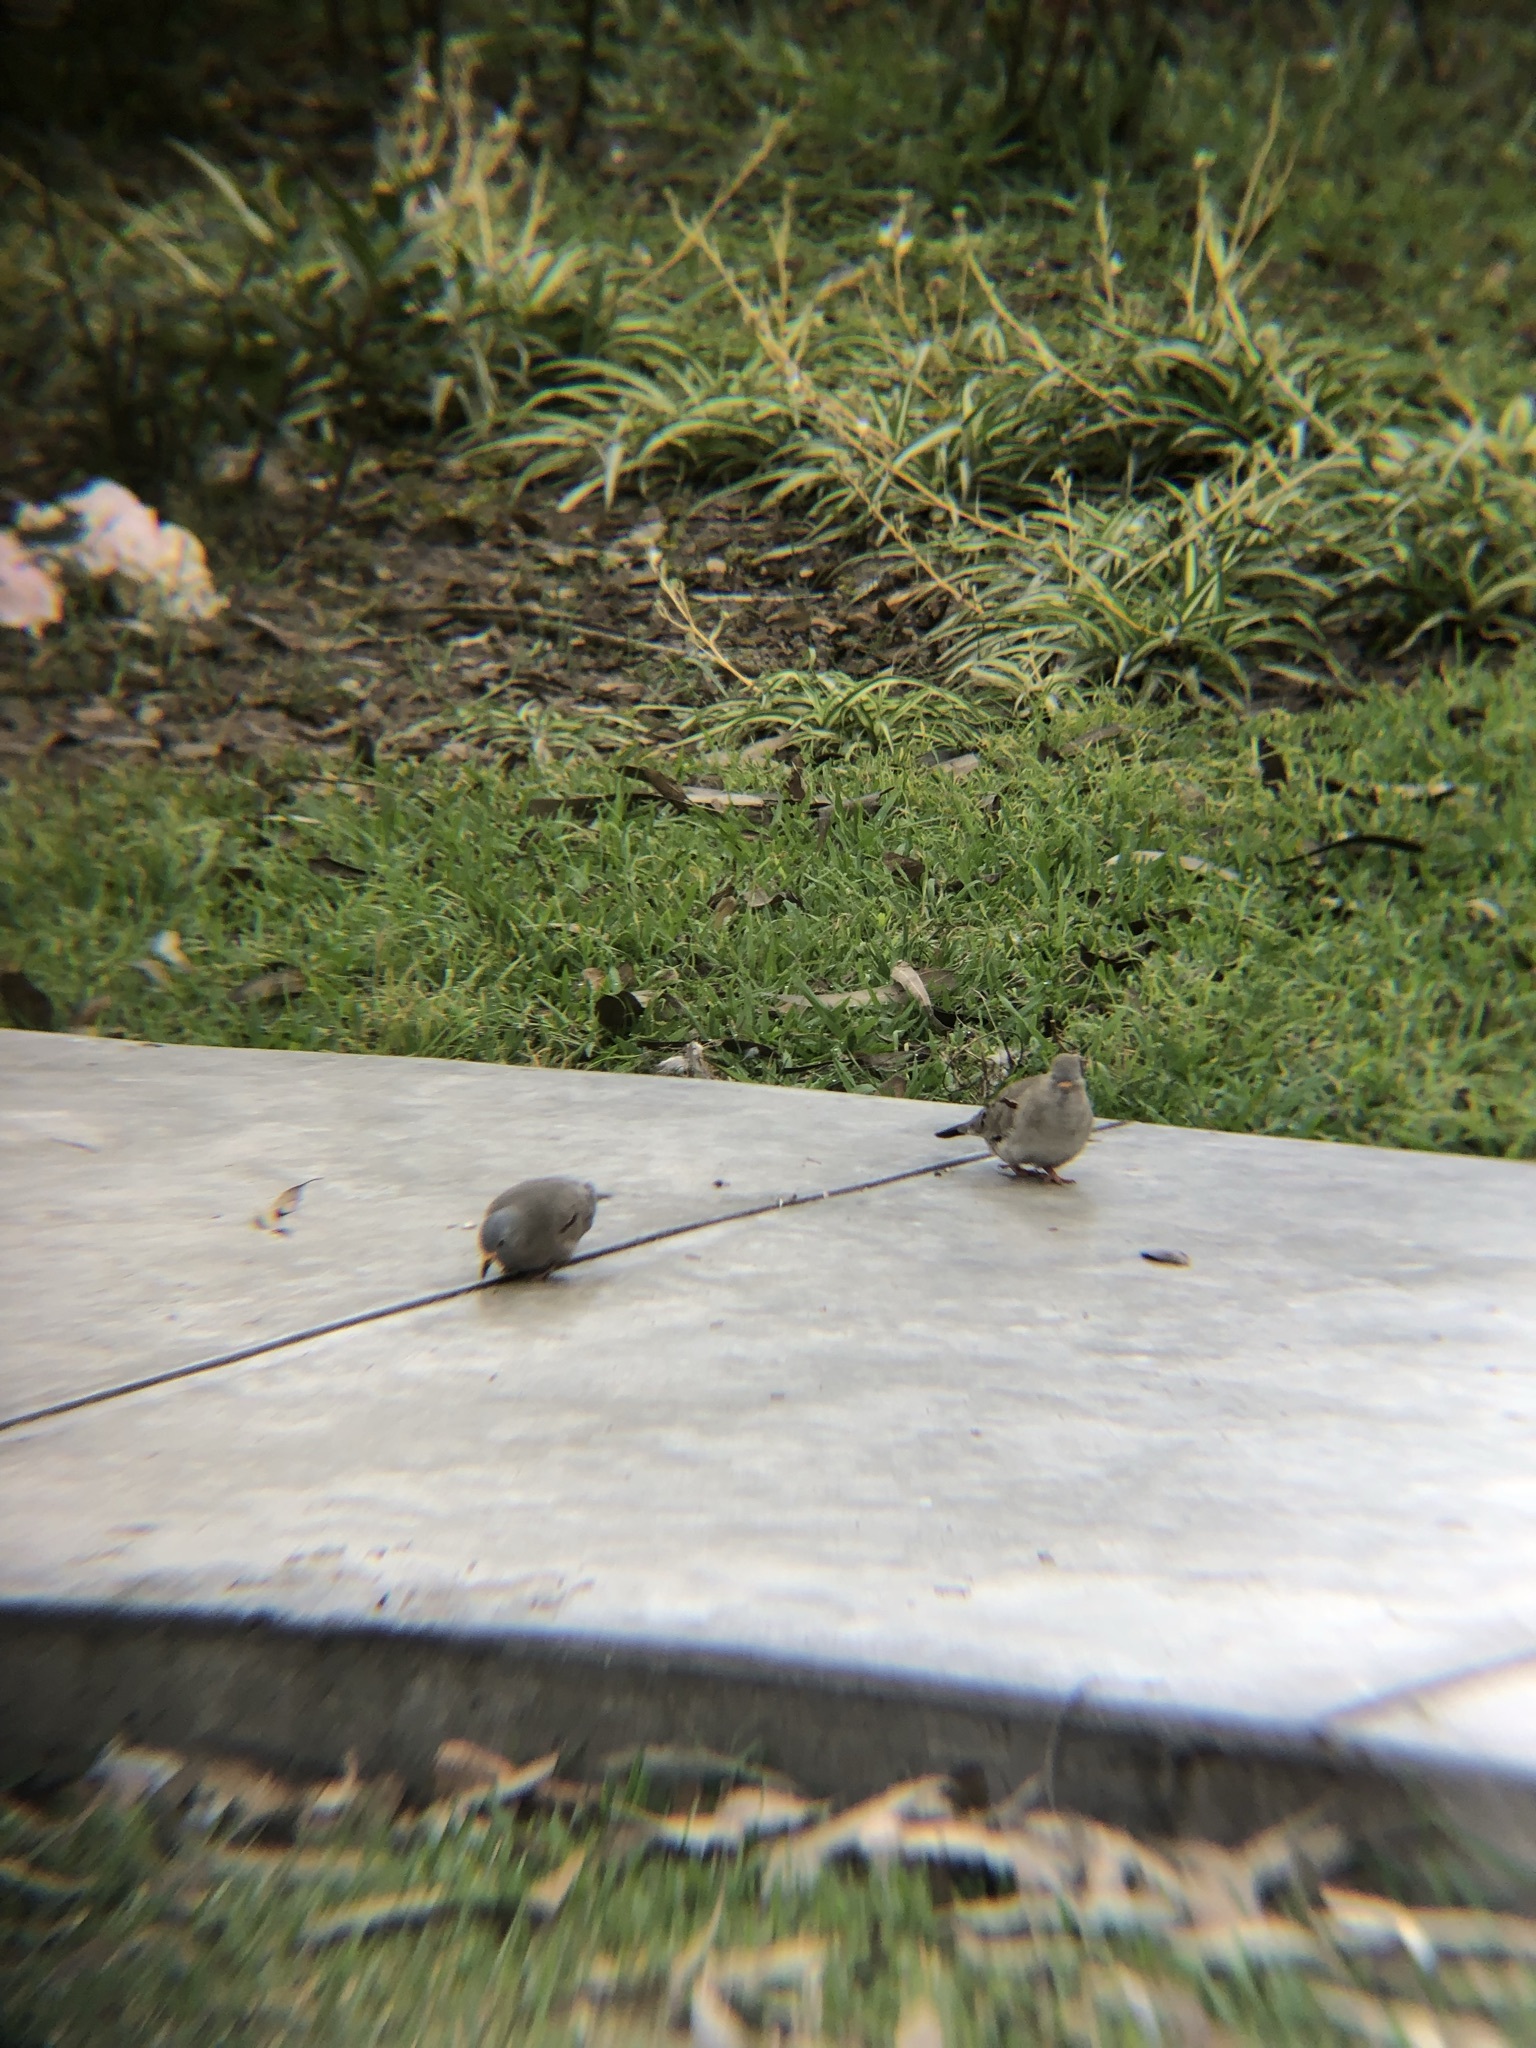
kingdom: Animalia
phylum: Chordata
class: Aves
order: Columbiformes
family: Columbidae
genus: Columbina
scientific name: Columbina cruziana
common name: Croaking ground dove
